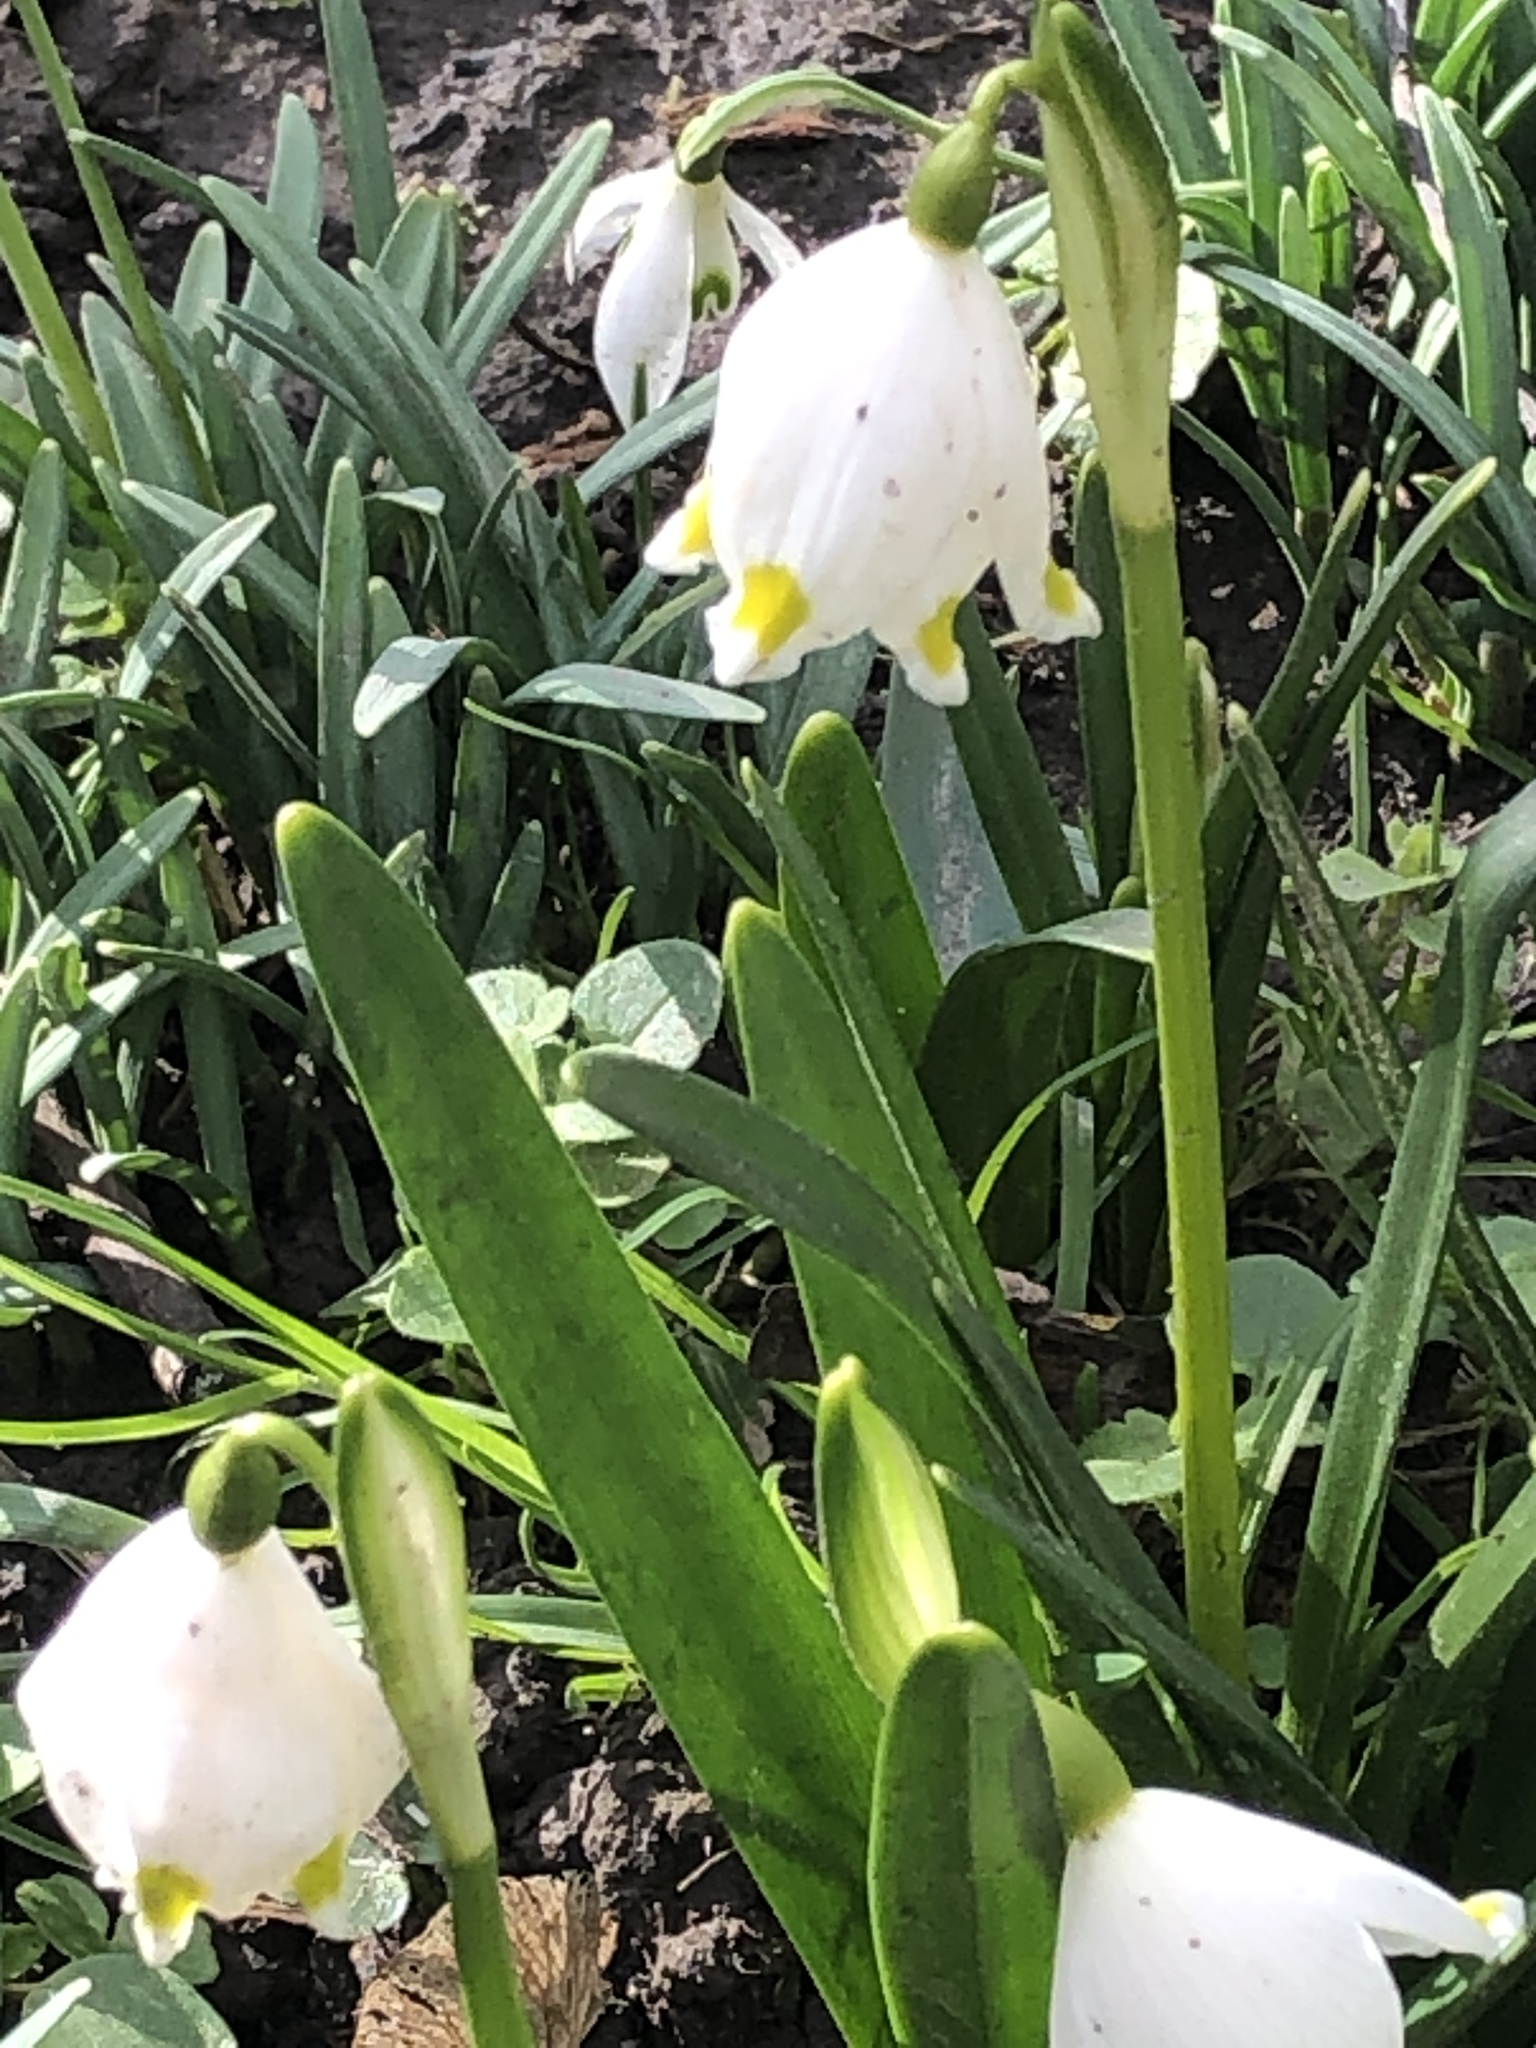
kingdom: Plantae
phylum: Tracheophyta
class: Liliopsida
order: Asparagales
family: Amaryllidaceae
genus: Leucojum
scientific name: Leucojum vernum
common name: Spring snowflake
